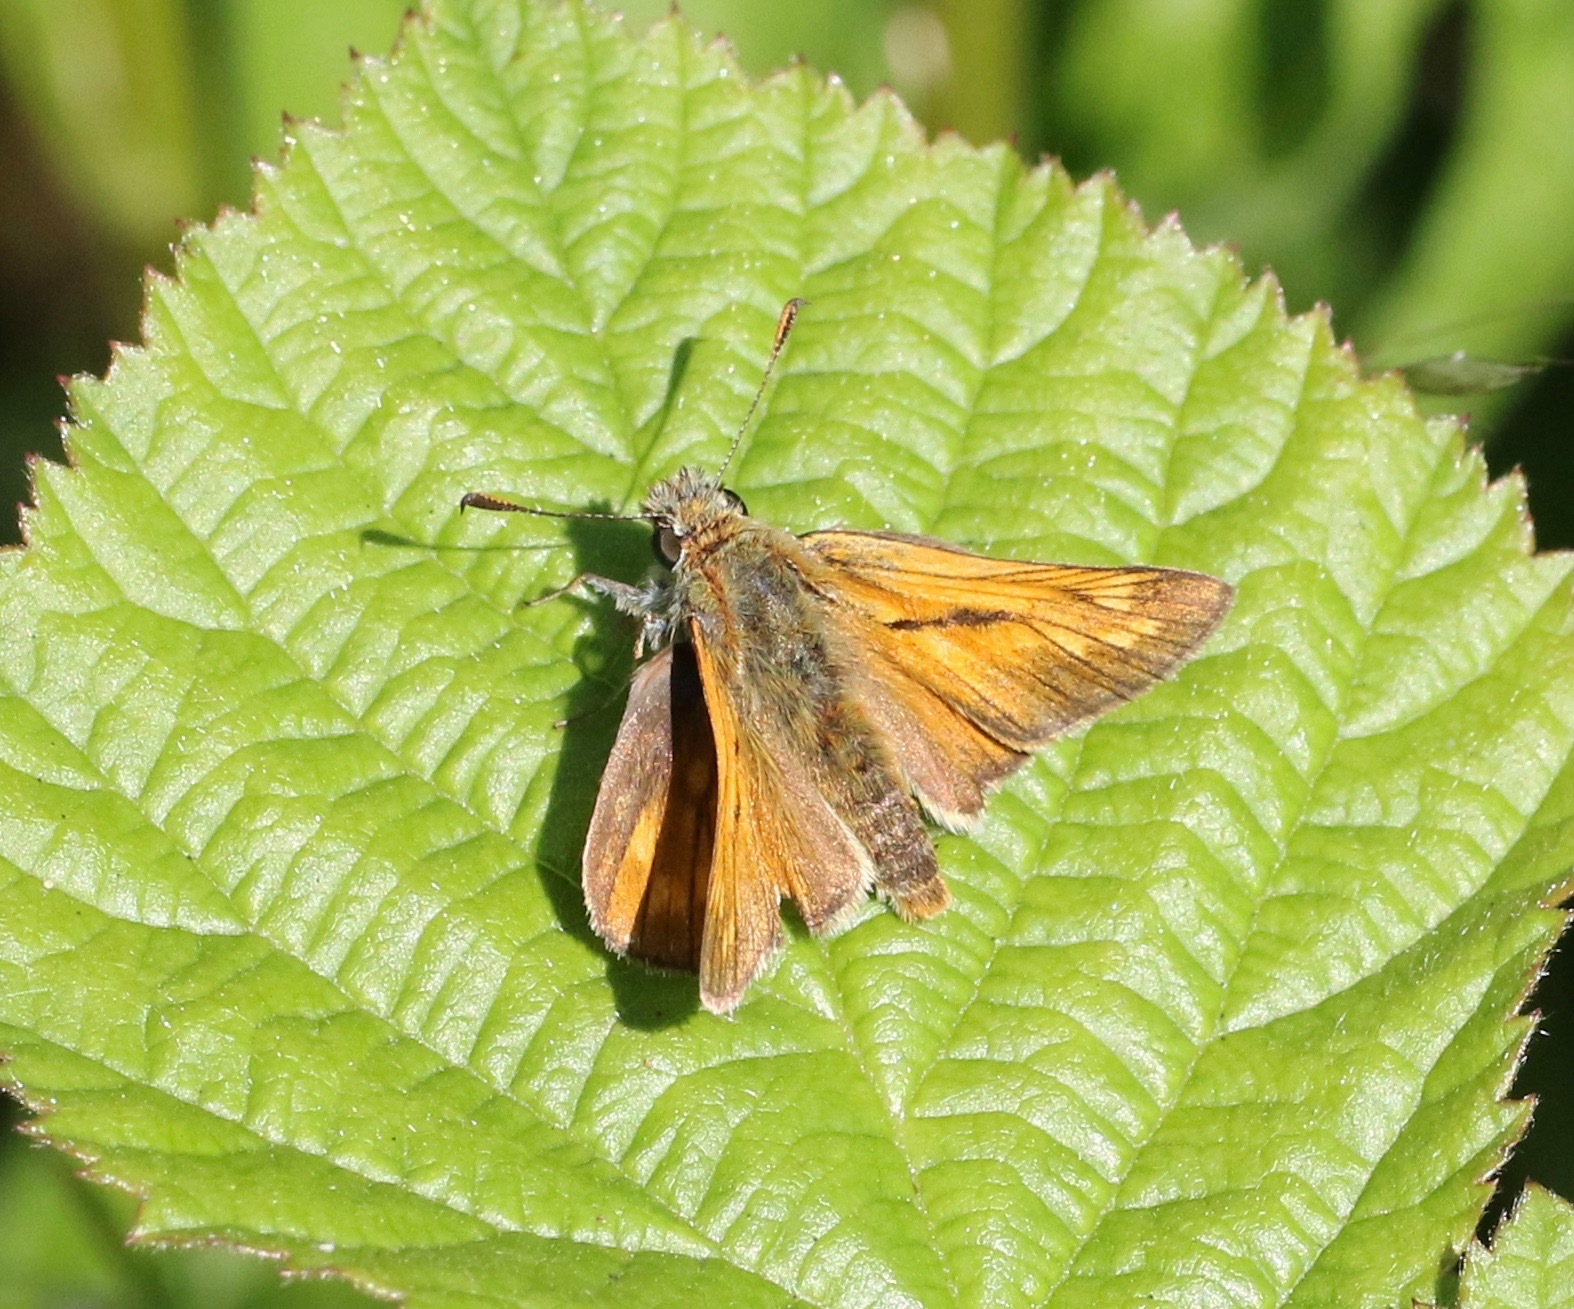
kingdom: Animalia
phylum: Arthropoda
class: Insecta
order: Lepidoptera
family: Hesperiidae
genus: Ochlodes
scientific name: Ochlodes venata
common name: Large skipper
